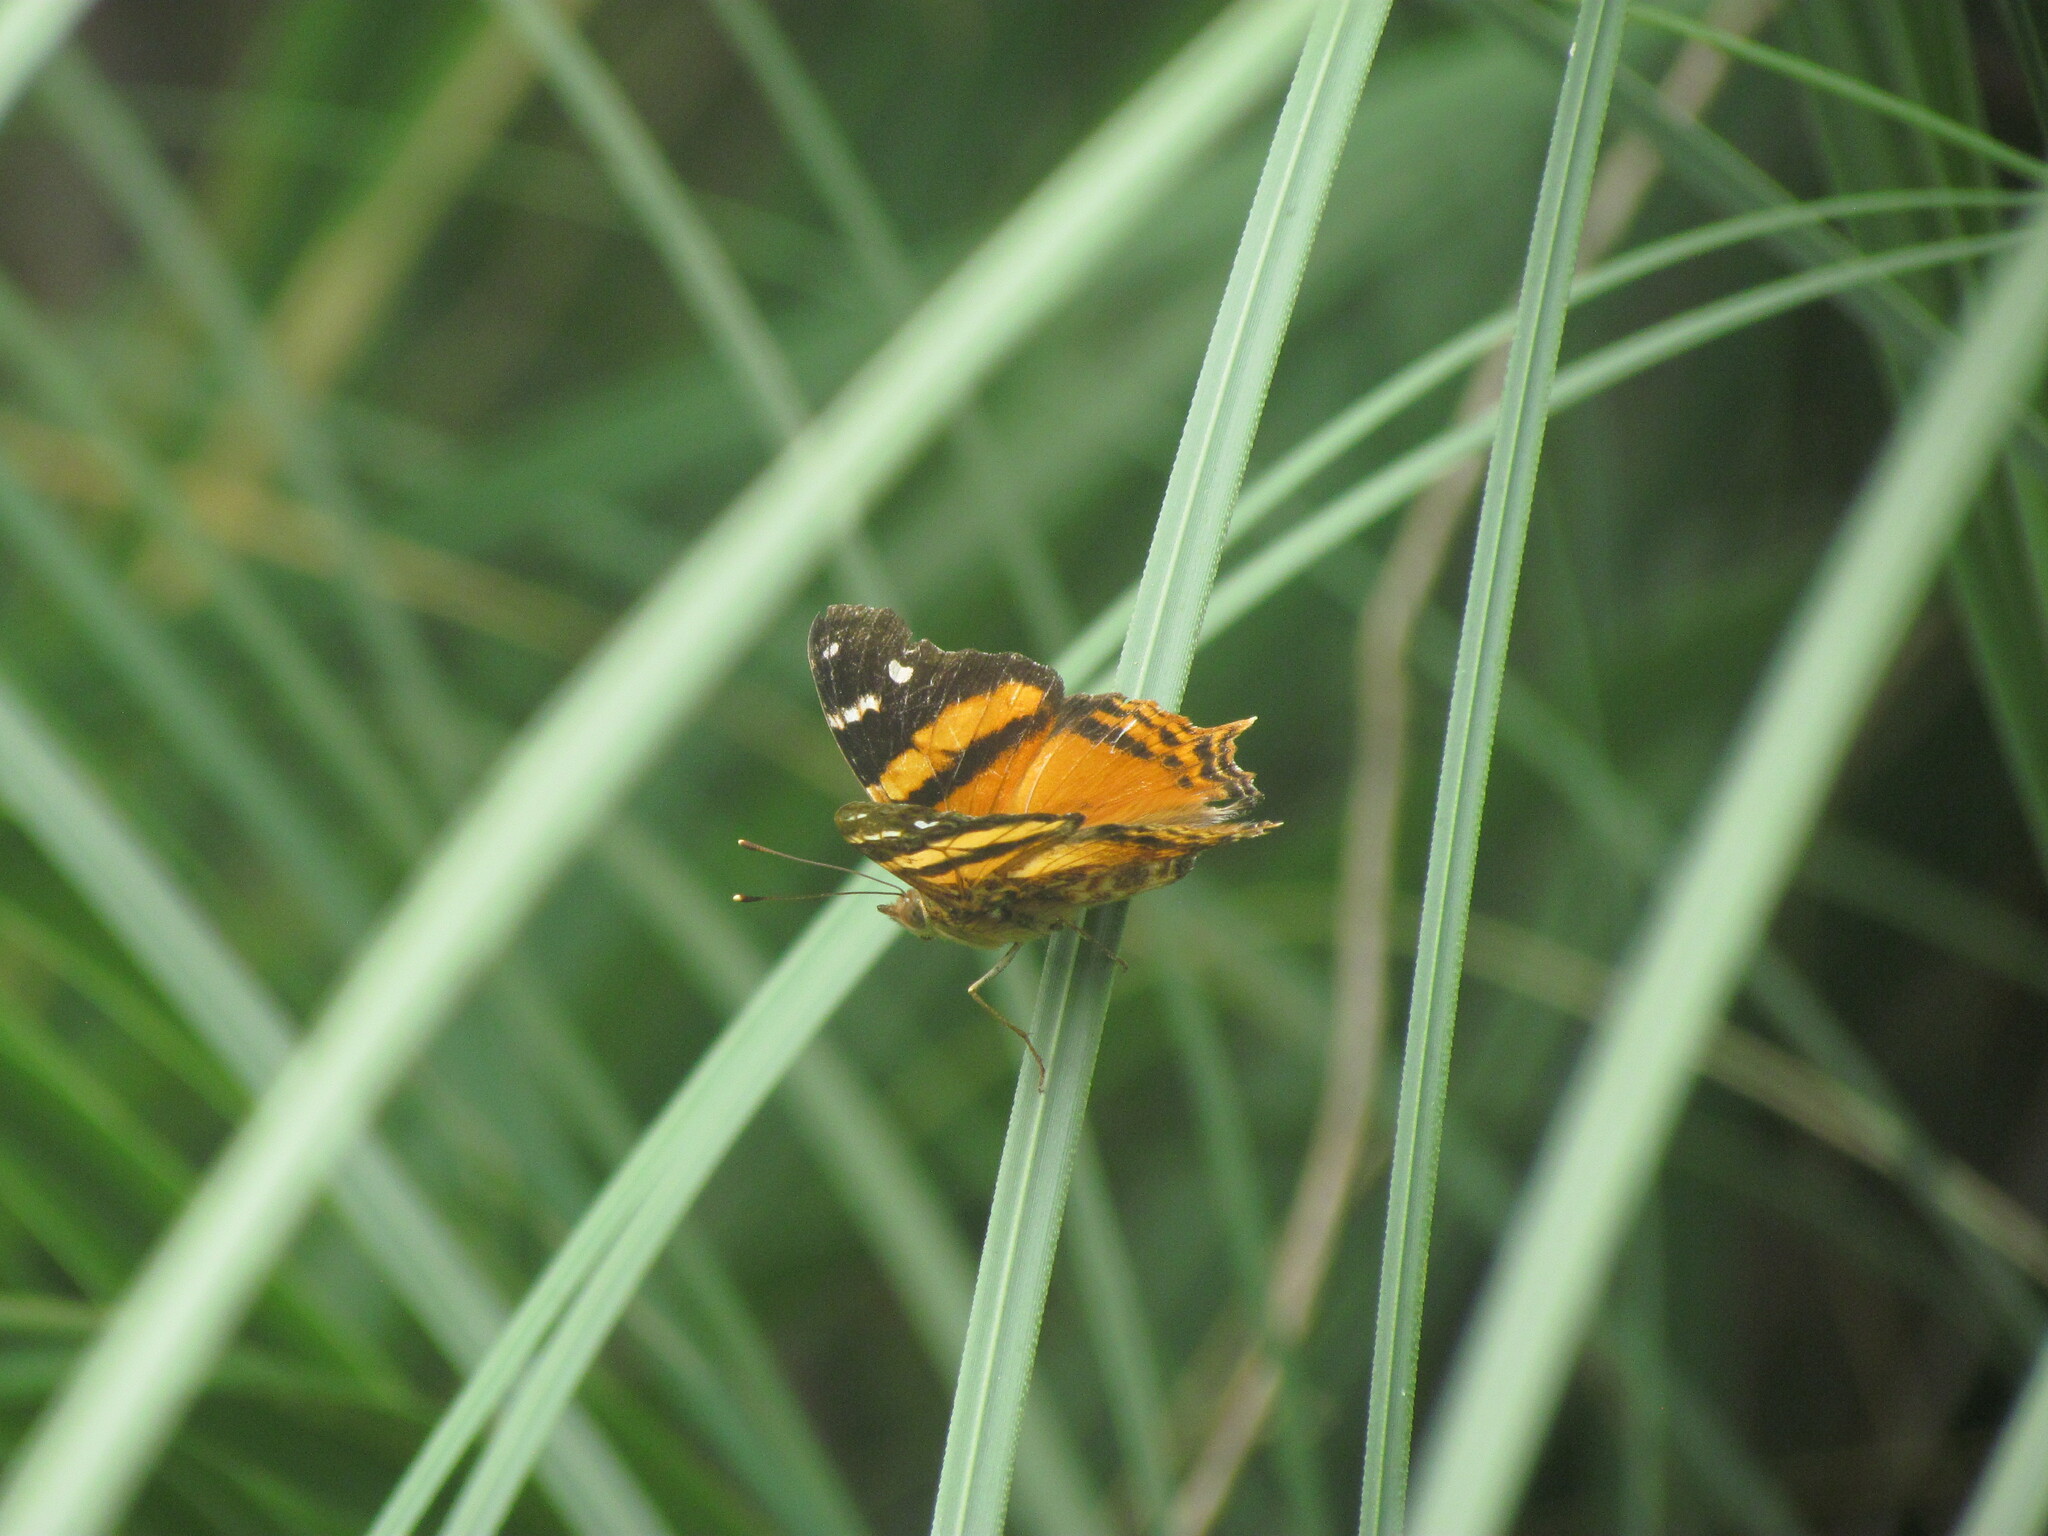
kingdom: Animalia
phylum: Arthropoda
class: Insecta
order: Lepidoptera
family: Nymphalidae
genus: Hypanartia
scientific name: Hypanartia bella
